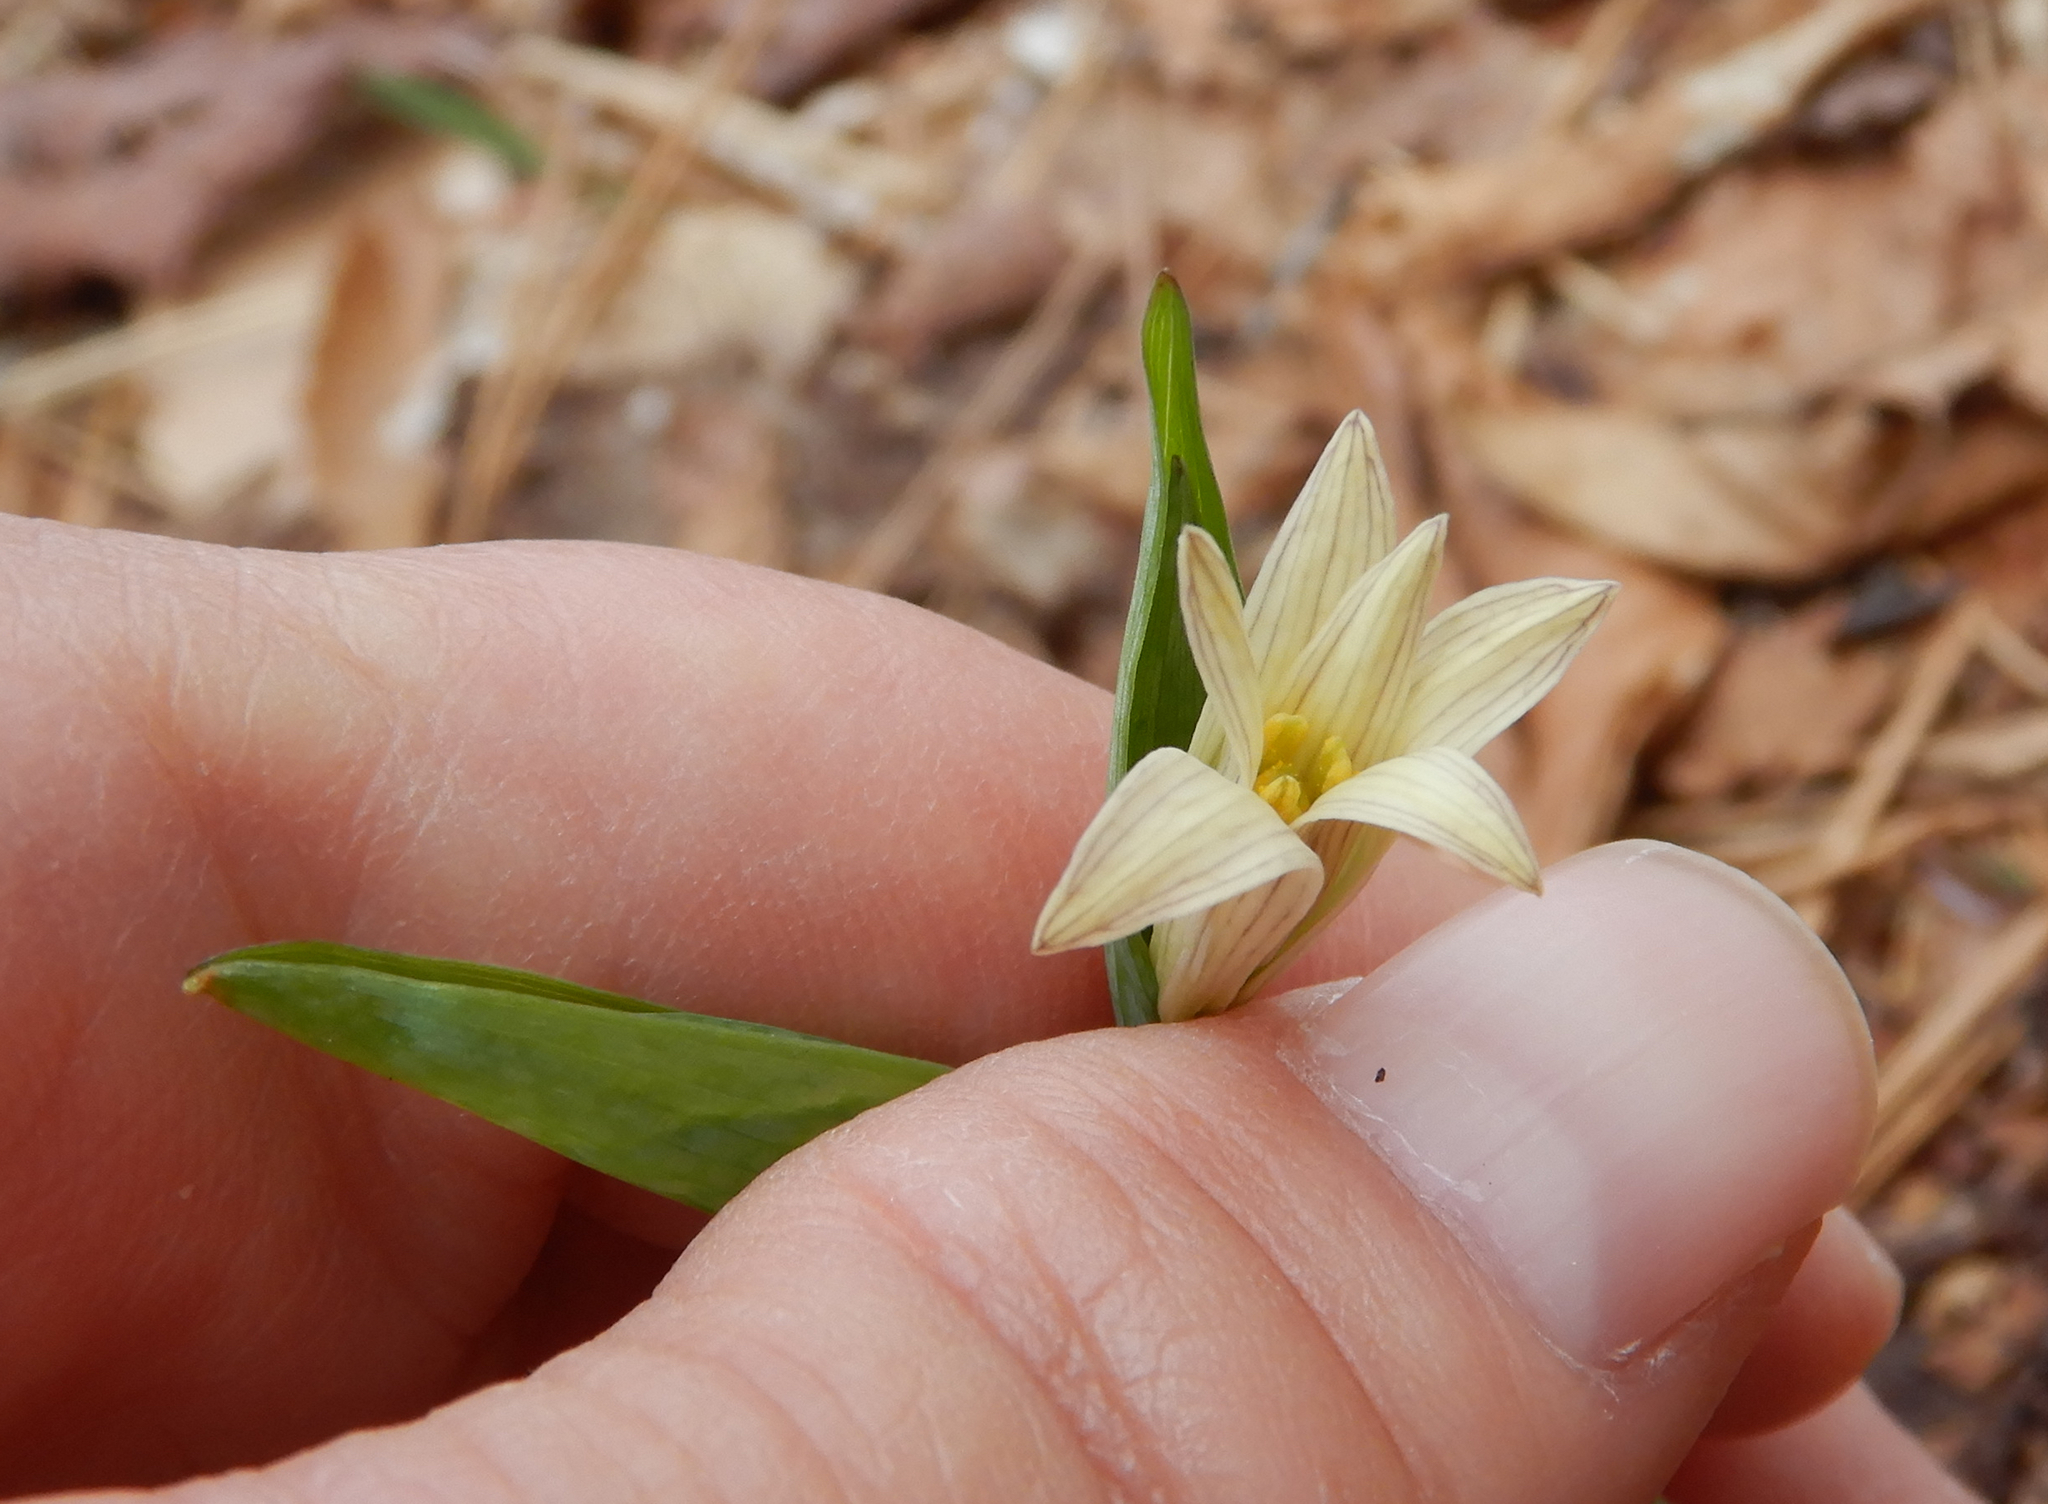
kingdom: Plantae
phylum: Tracheophyta
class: Liliopsida
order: Liliales
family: Colchicaceae
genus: Uvularia
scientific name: Uvularia sessilifolia
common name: Straw-lily
